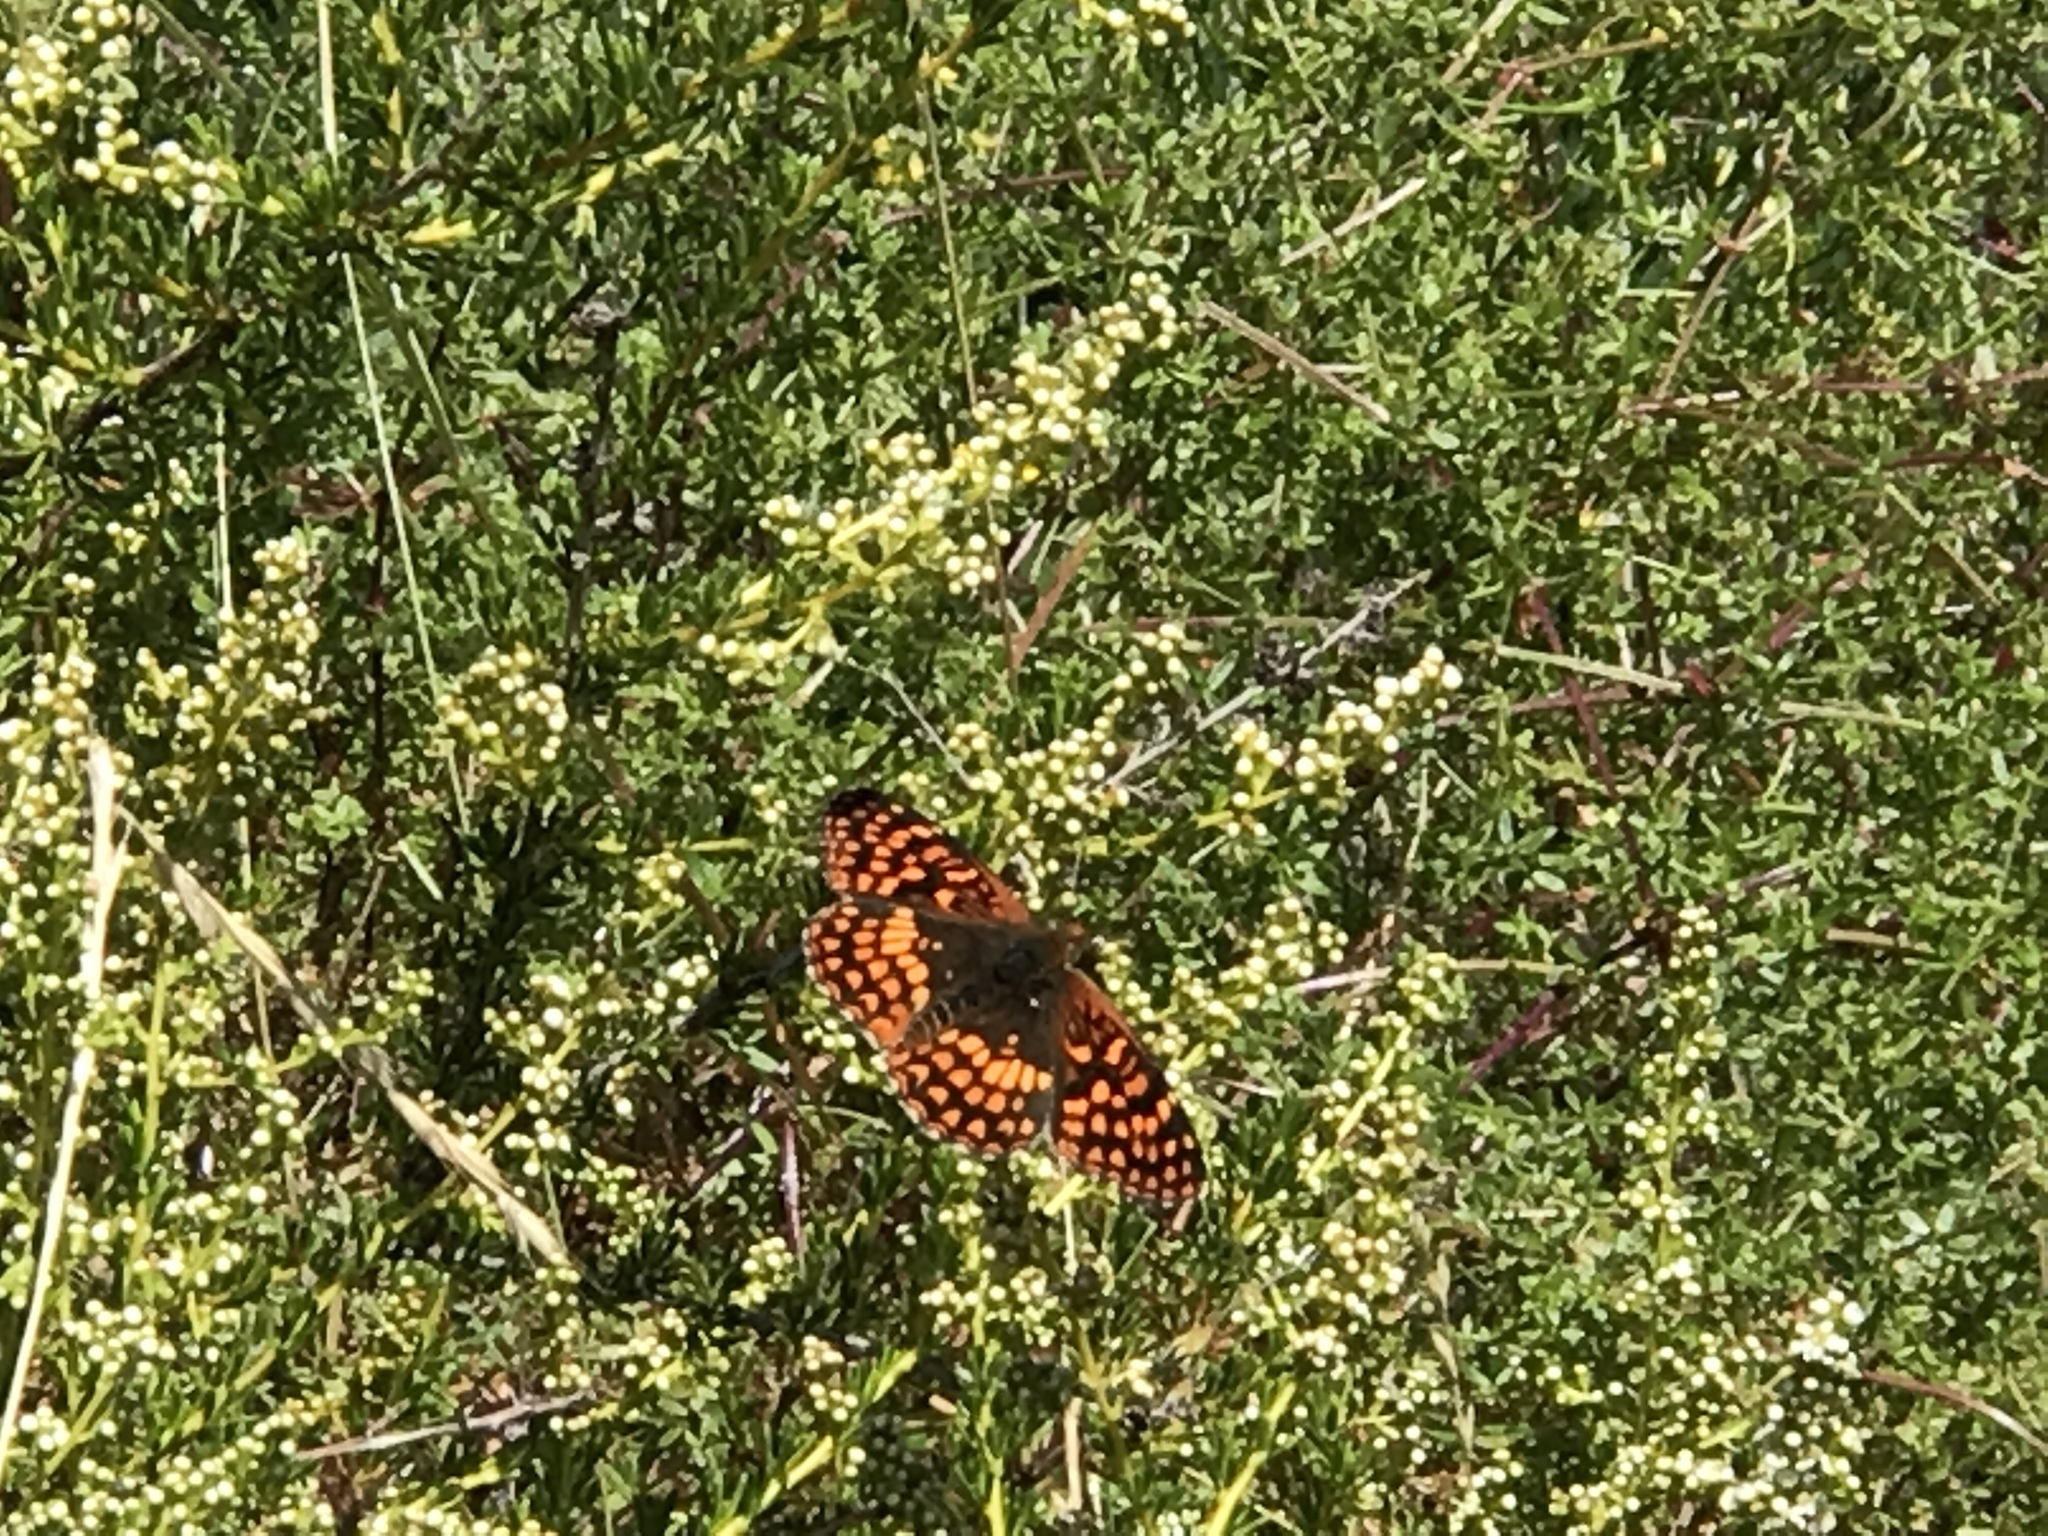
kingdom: Animalia
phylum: Arthropoda
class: Insecta
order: Lepidoptera
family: Nymphalidae
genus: Chlosyne
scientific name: Chlosyne palla
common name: Northern checkerspot
